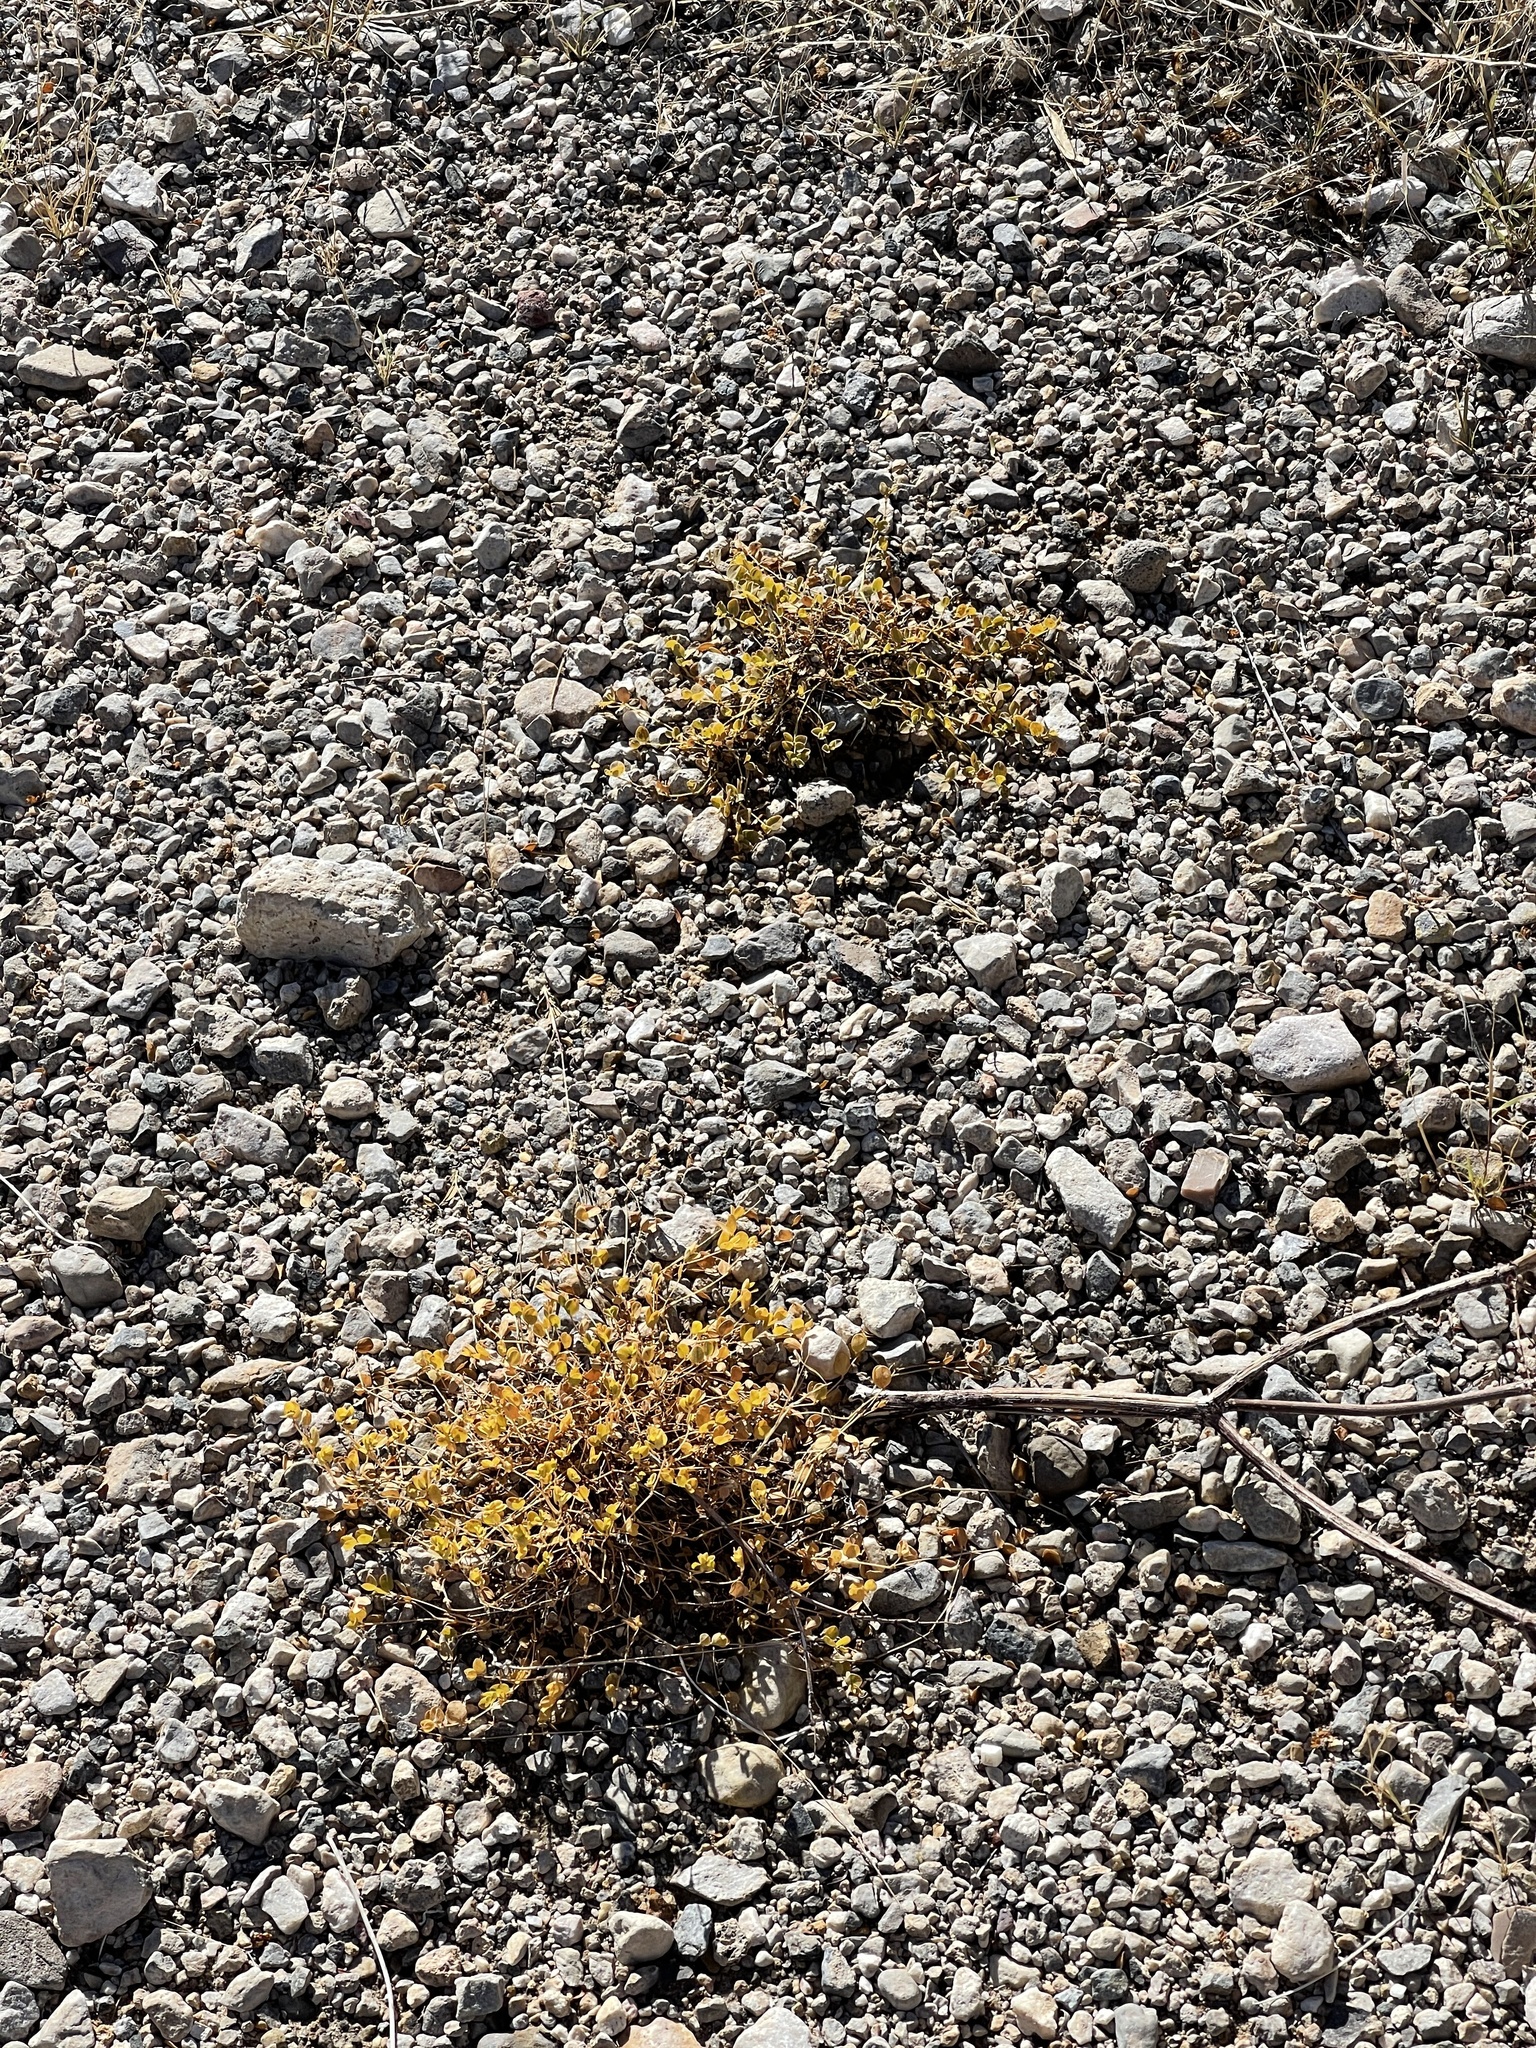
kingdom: Plantae
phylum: Tracheophyta
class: Magnoliopsida
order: Malpighiales
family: Euphorbiaceae
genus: Euphorbia
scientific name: Euphorbia albomarginata
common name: Whitemargin sandmat
